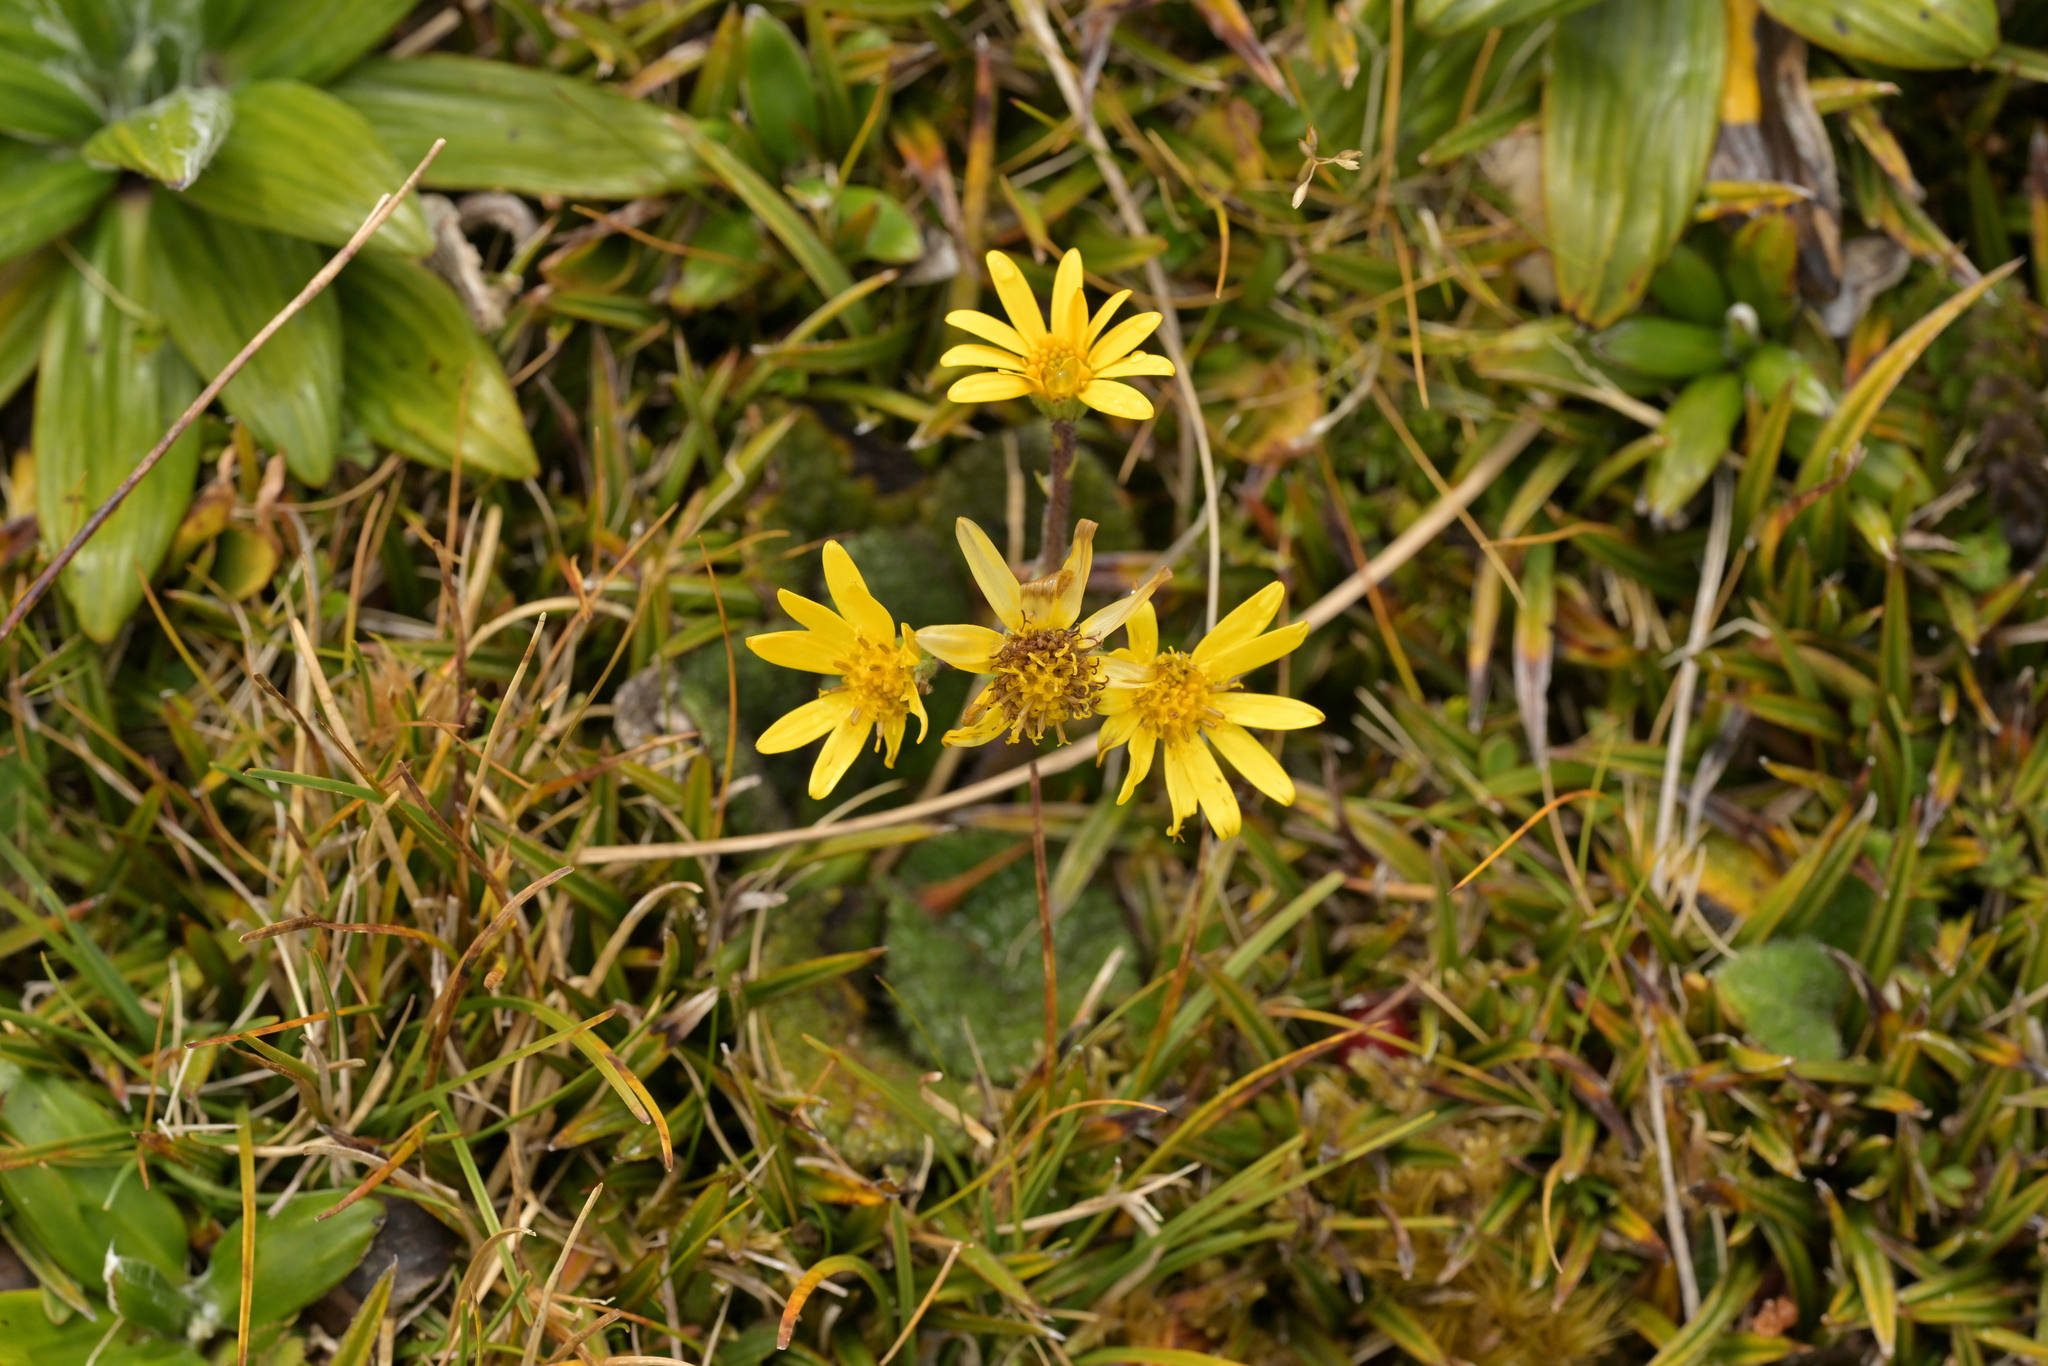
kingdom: Plantae
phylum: Tracheophyta
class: Magnoliopsida
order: Asterales
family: Asteraceae
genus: Brachyglottis
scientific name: Brachyglottis lagopus
